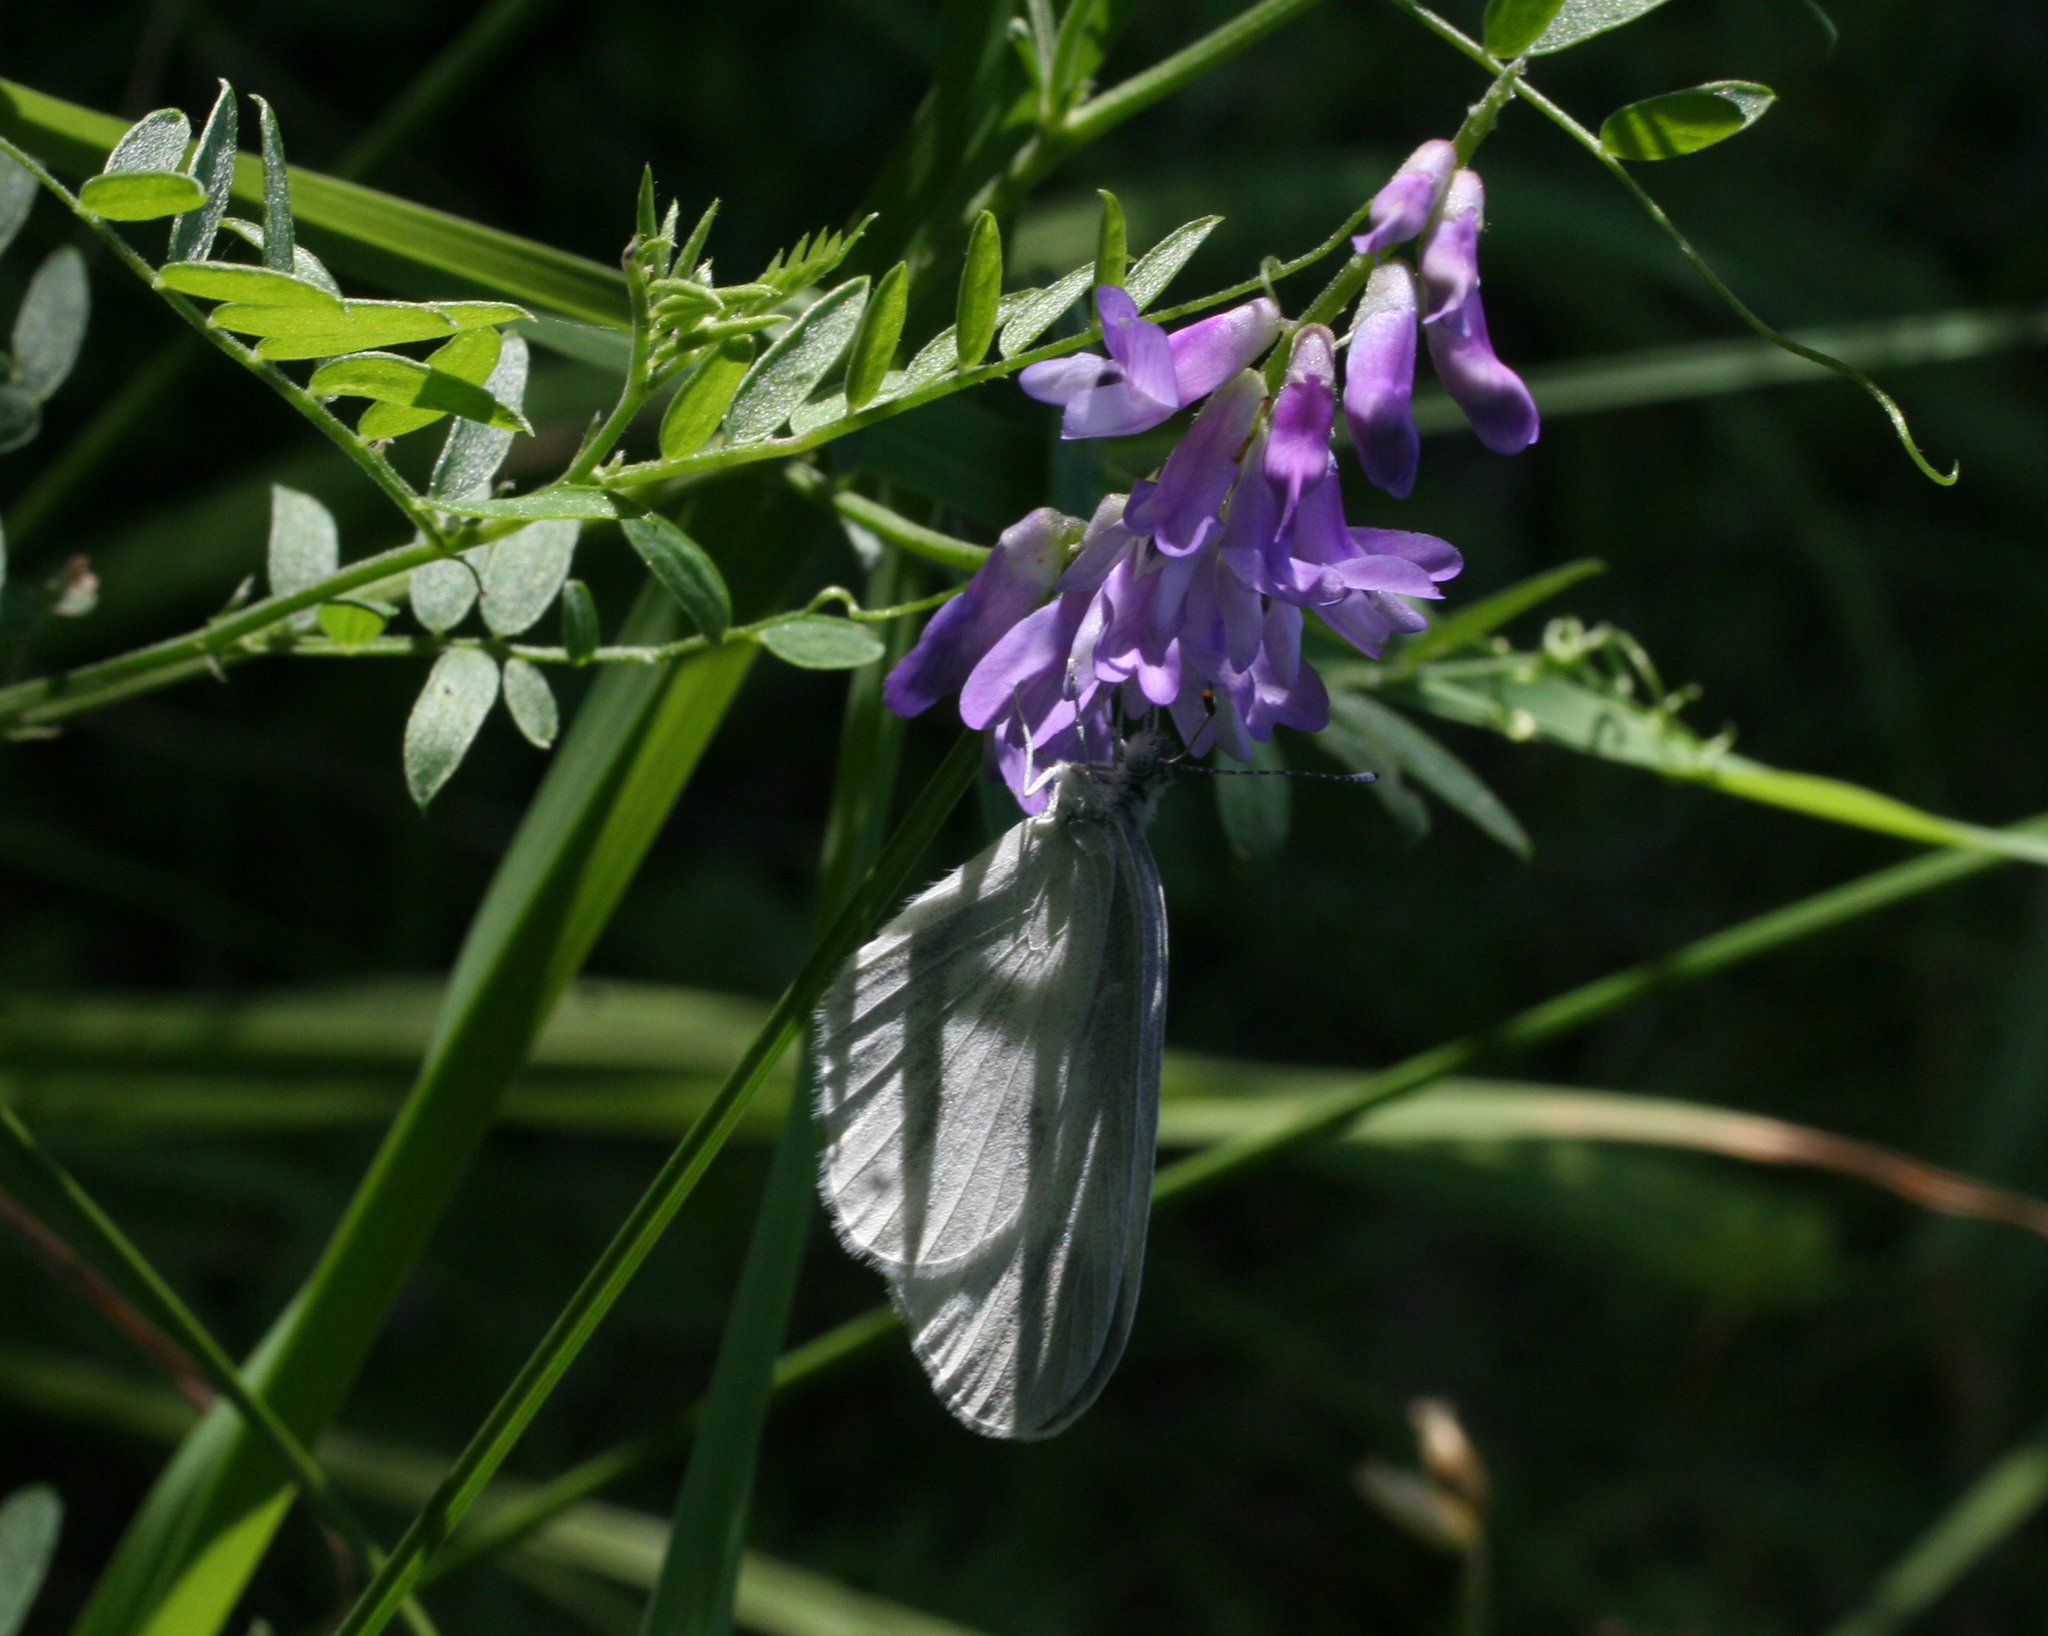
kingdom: Plantae
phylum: Tracheophyta
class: Magnoliopsida
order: Fabales
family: Fabaceae
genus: Vicia
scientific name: Vicia cracca
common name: Bird vetch
